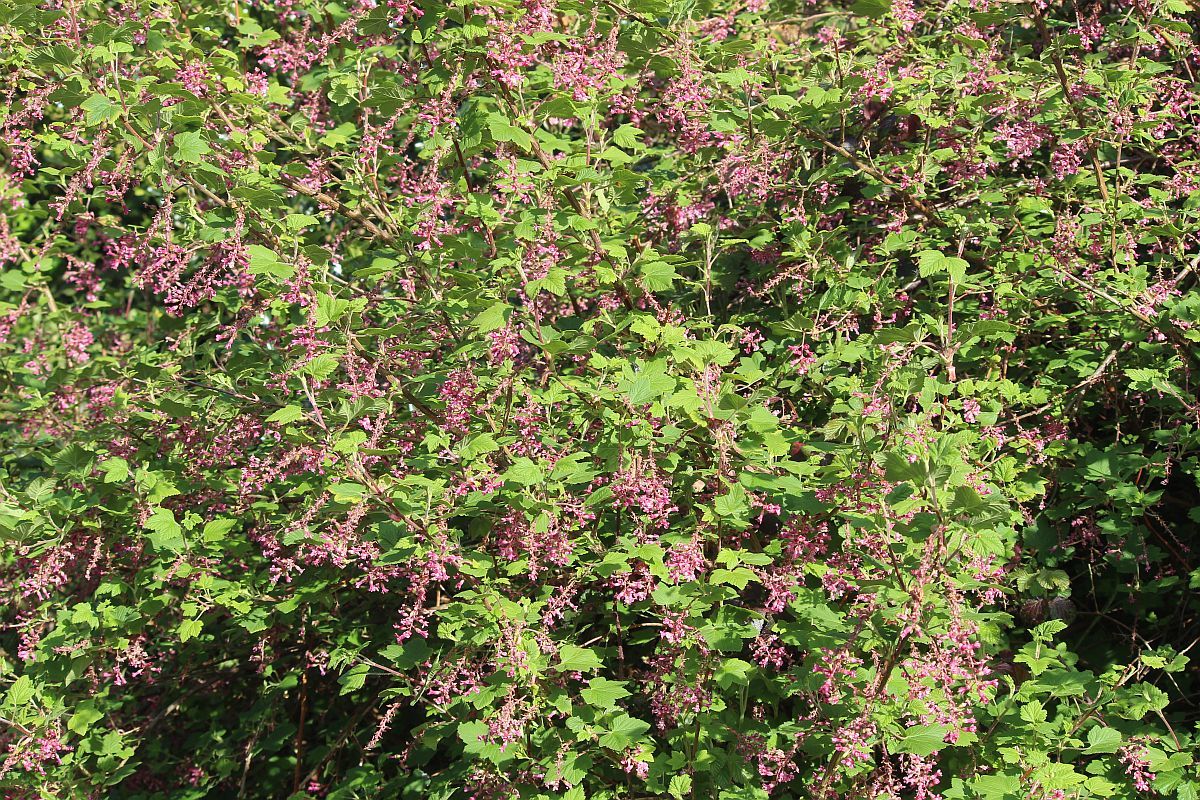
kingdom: Plantae
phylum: Tracheophyta
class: Magnoliopsida
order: Saxifragales
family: Grossulariaceae
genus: Ribes
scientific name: Ribes sanguineum
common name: Flowering currant
